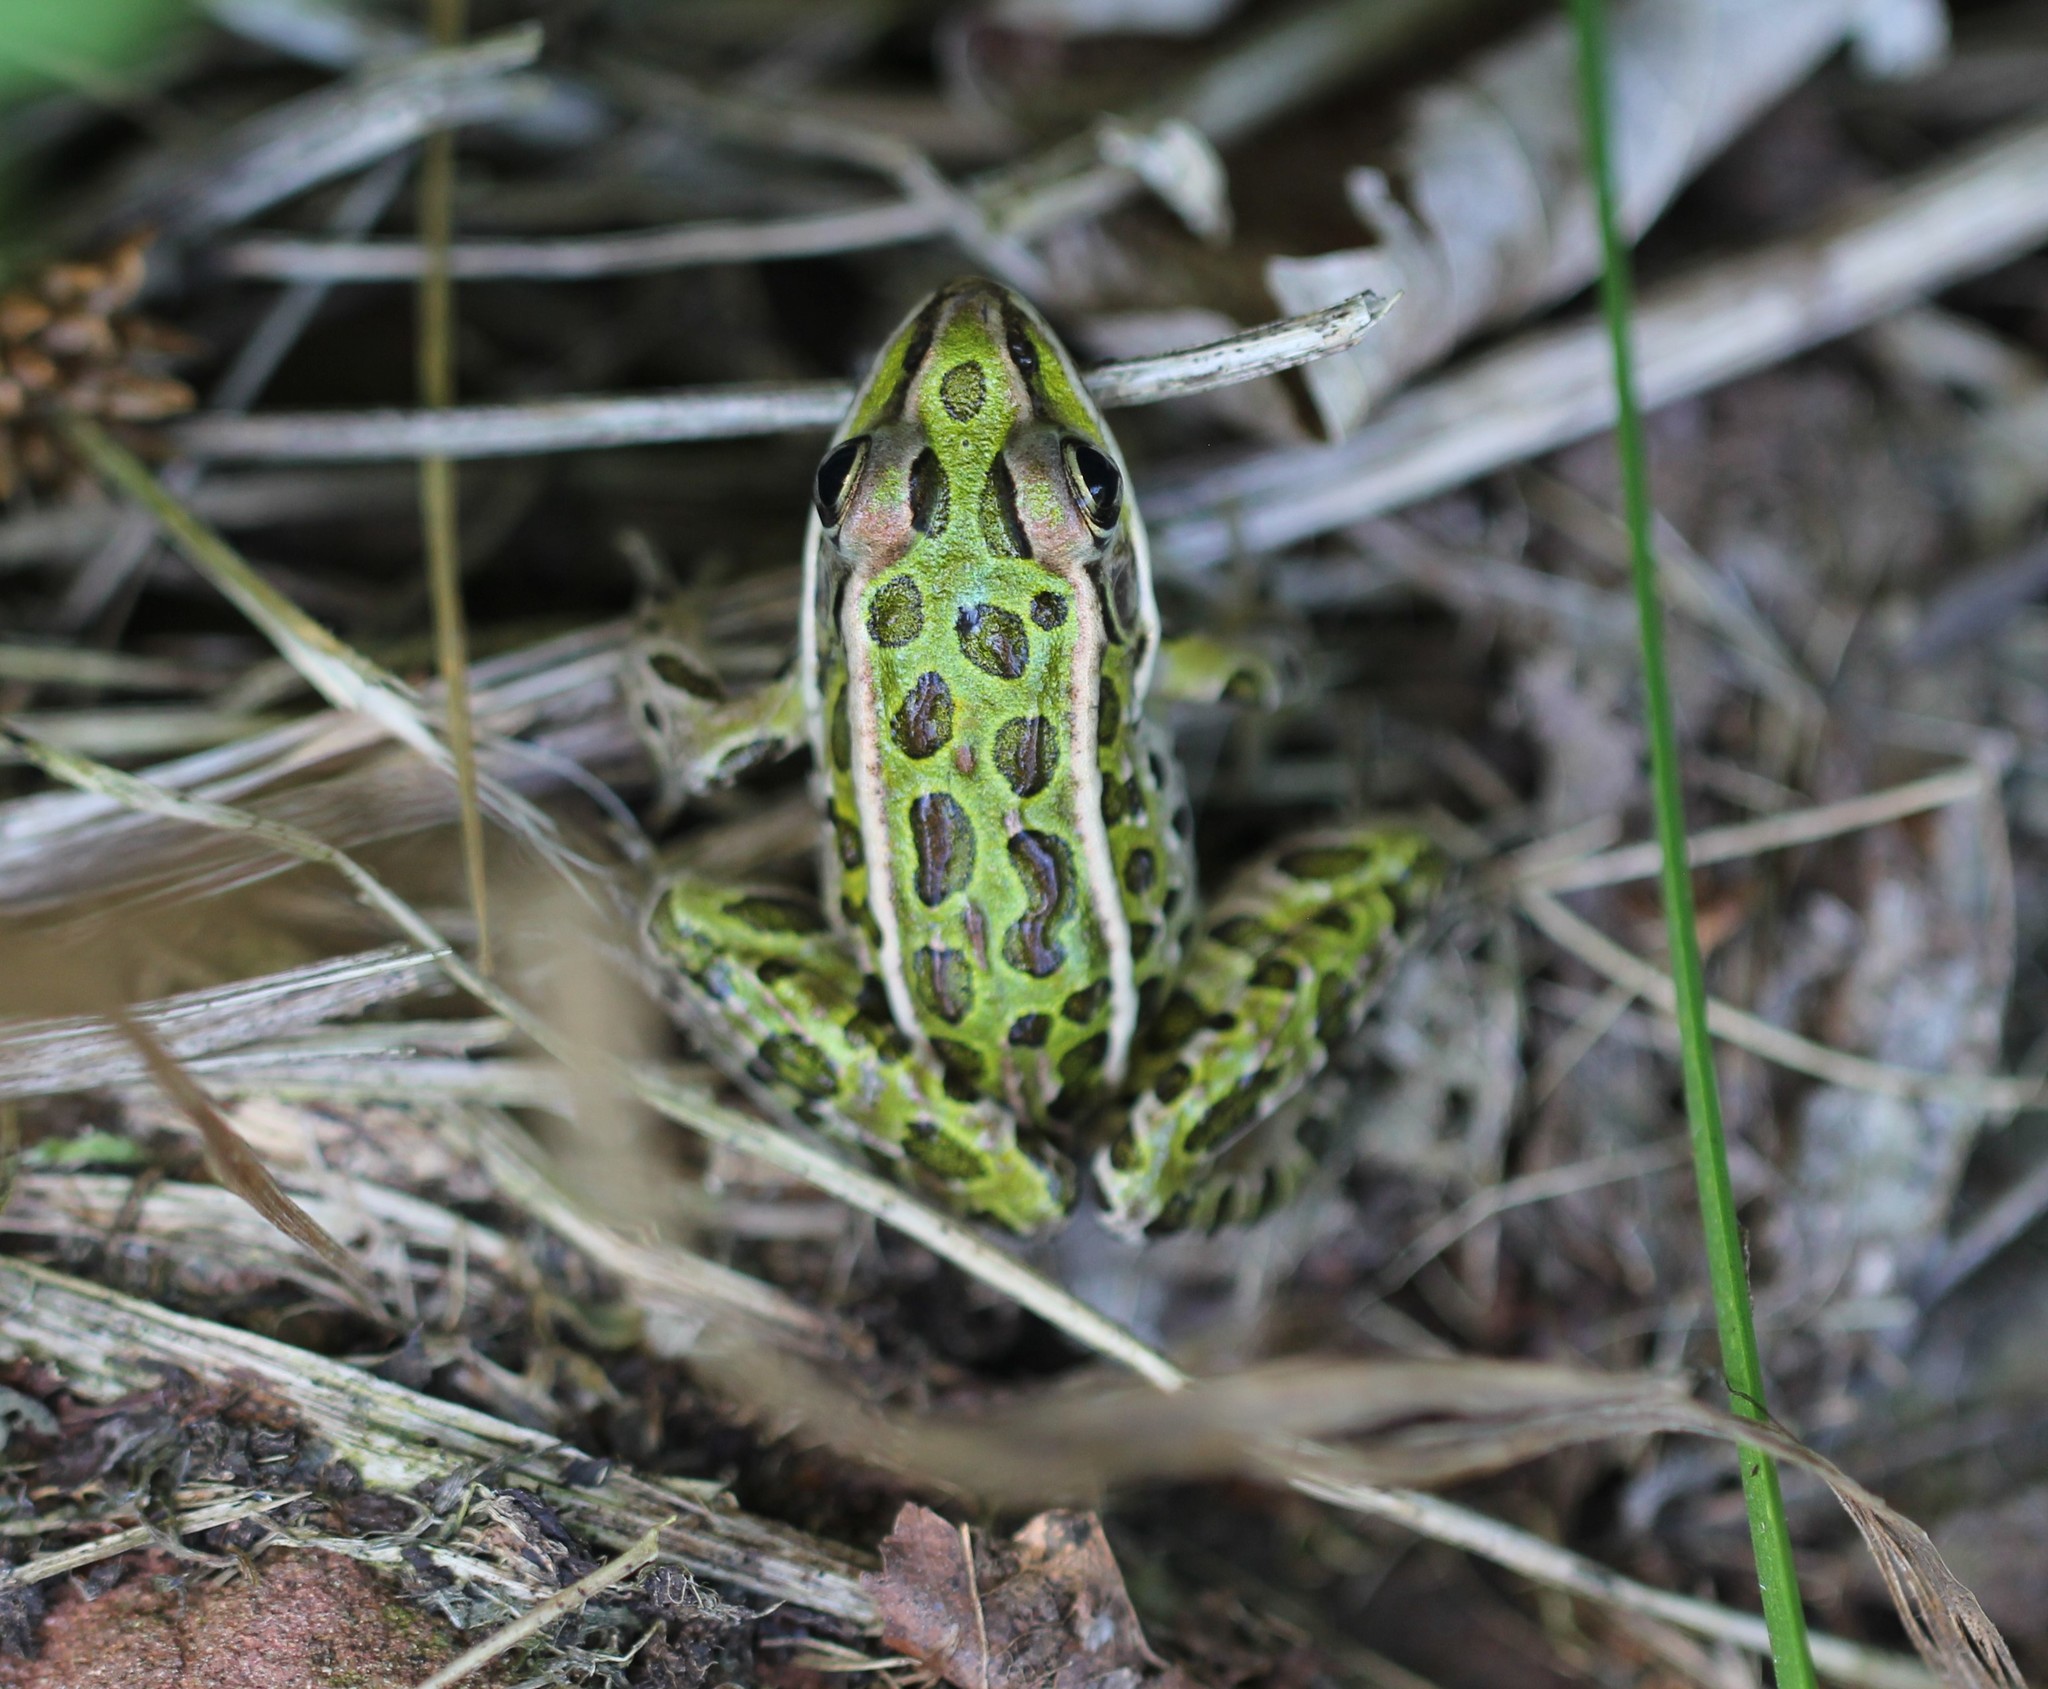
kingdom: Animalia
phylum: Chordata
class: Amphibia
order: Anura
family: Ranidae
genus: Lithobates
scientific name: Lithobates pipiens
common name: Northern leopard frog
